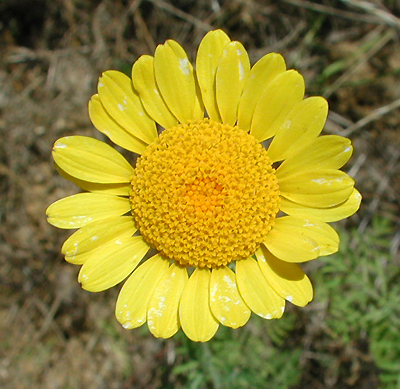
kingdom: Plantae
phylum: Tracheophyta
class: Magnoliopsida
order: Asterales
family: Asteraceae
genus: Cota
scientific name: Cota tinctoria
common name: Golden chamomile
